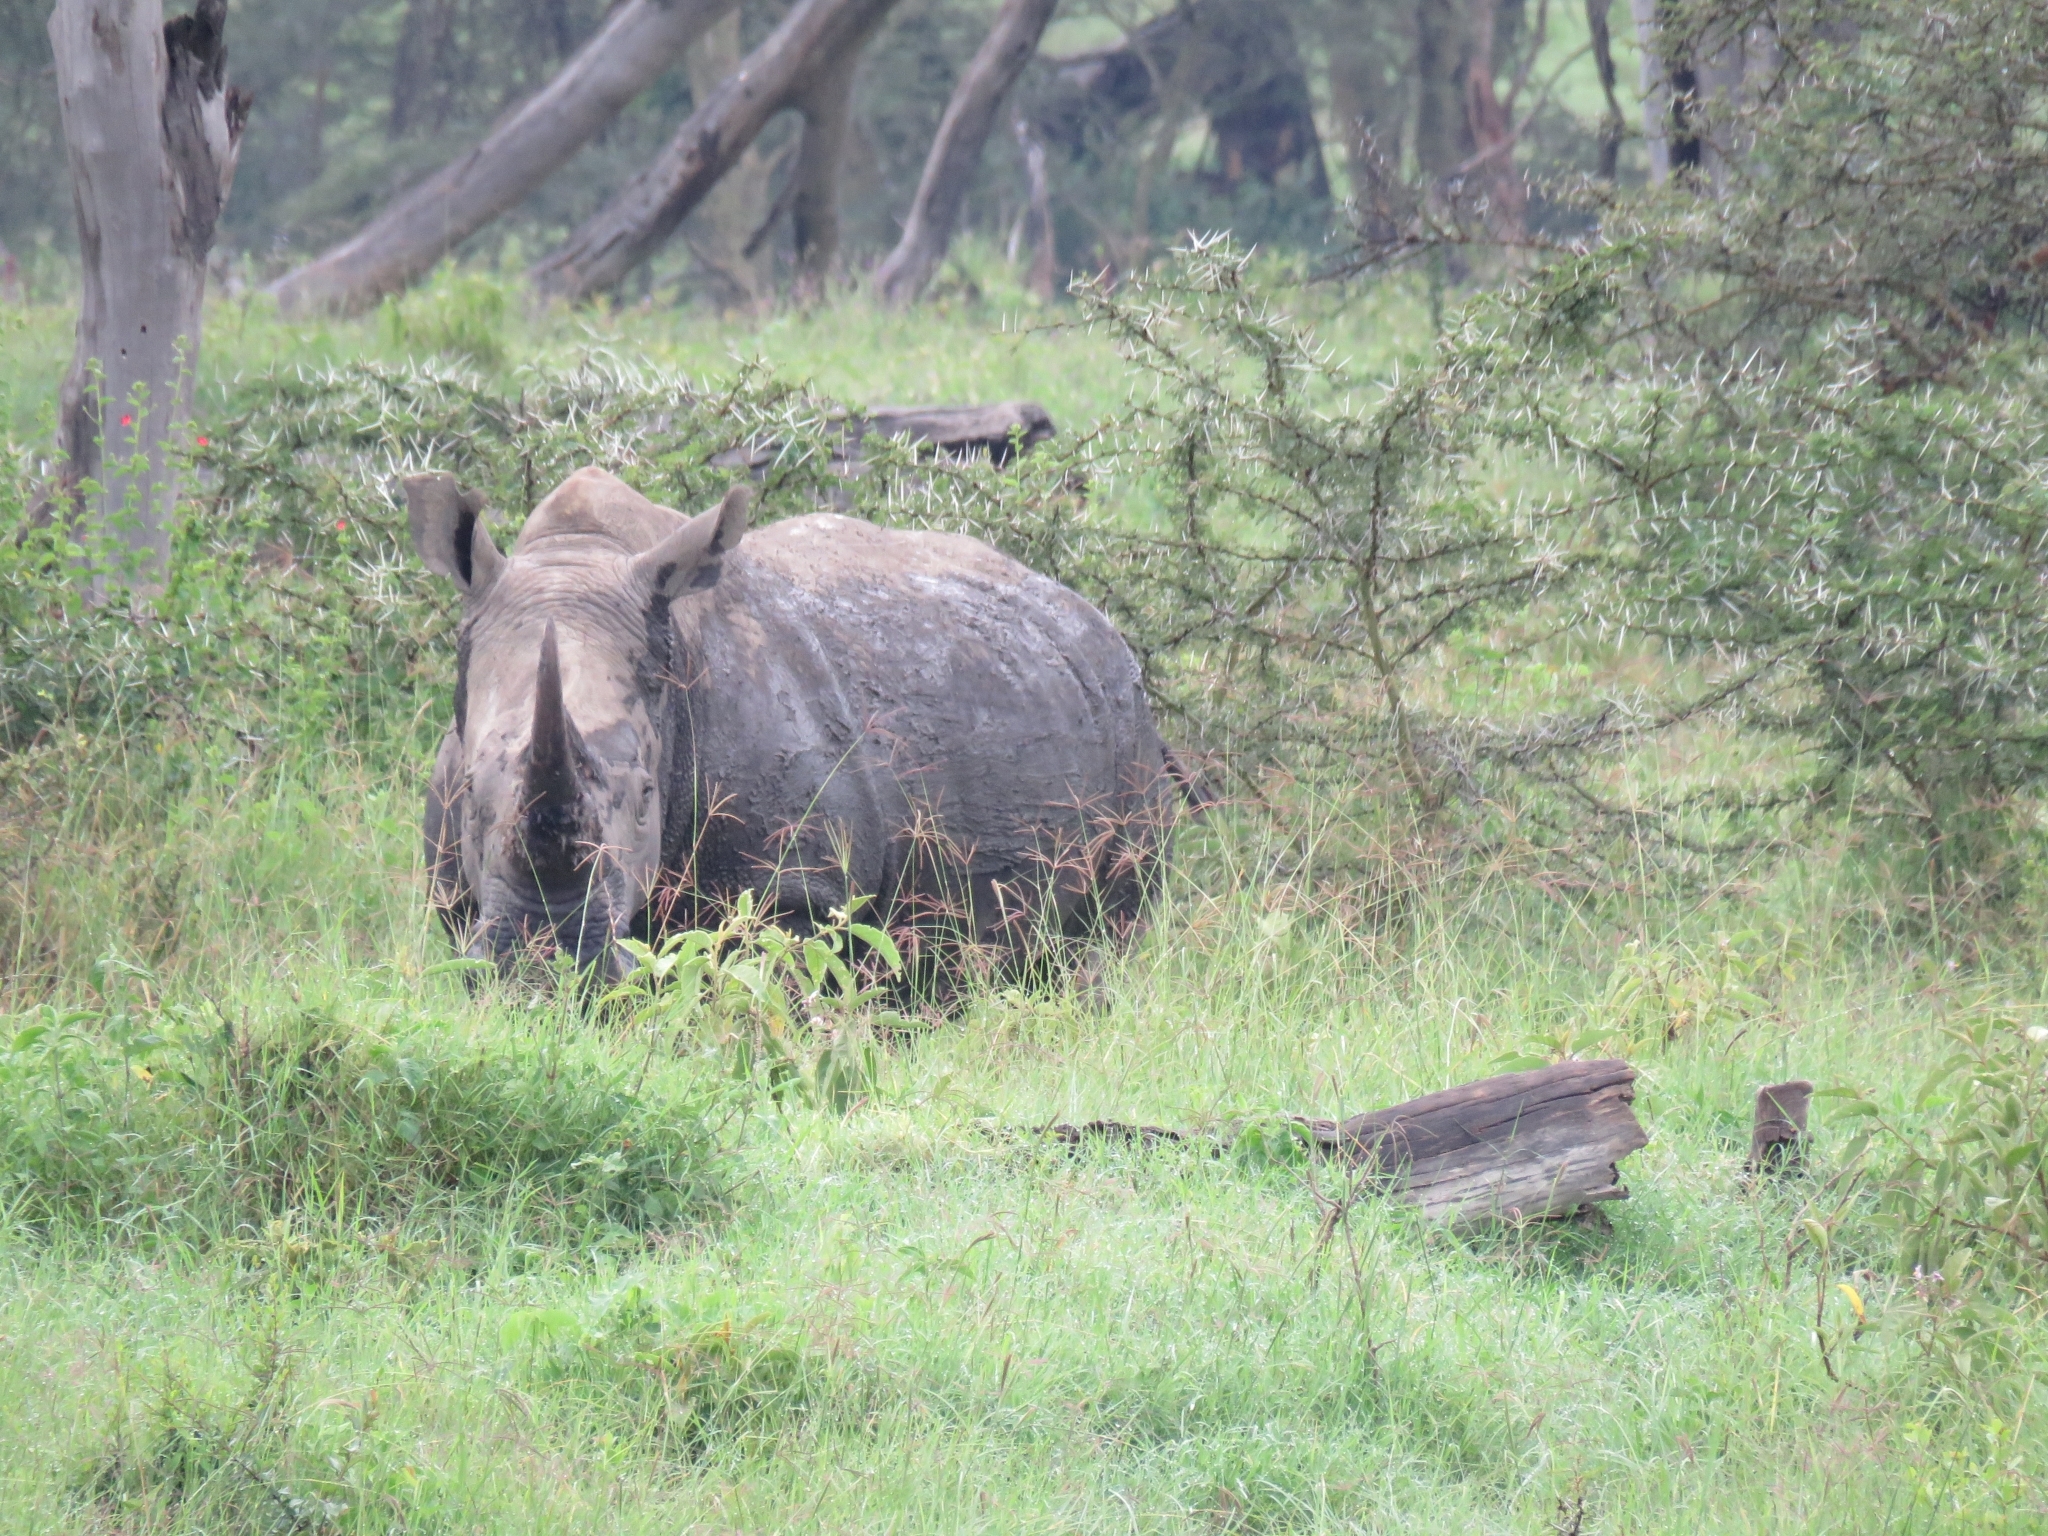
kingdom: Animalia
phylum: Chordata
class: Mammalia
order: Perissodactyla
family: Rhinocerotidae
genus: Ceratotherium
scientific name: Ceratotherium simum
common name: White rhinoceros
